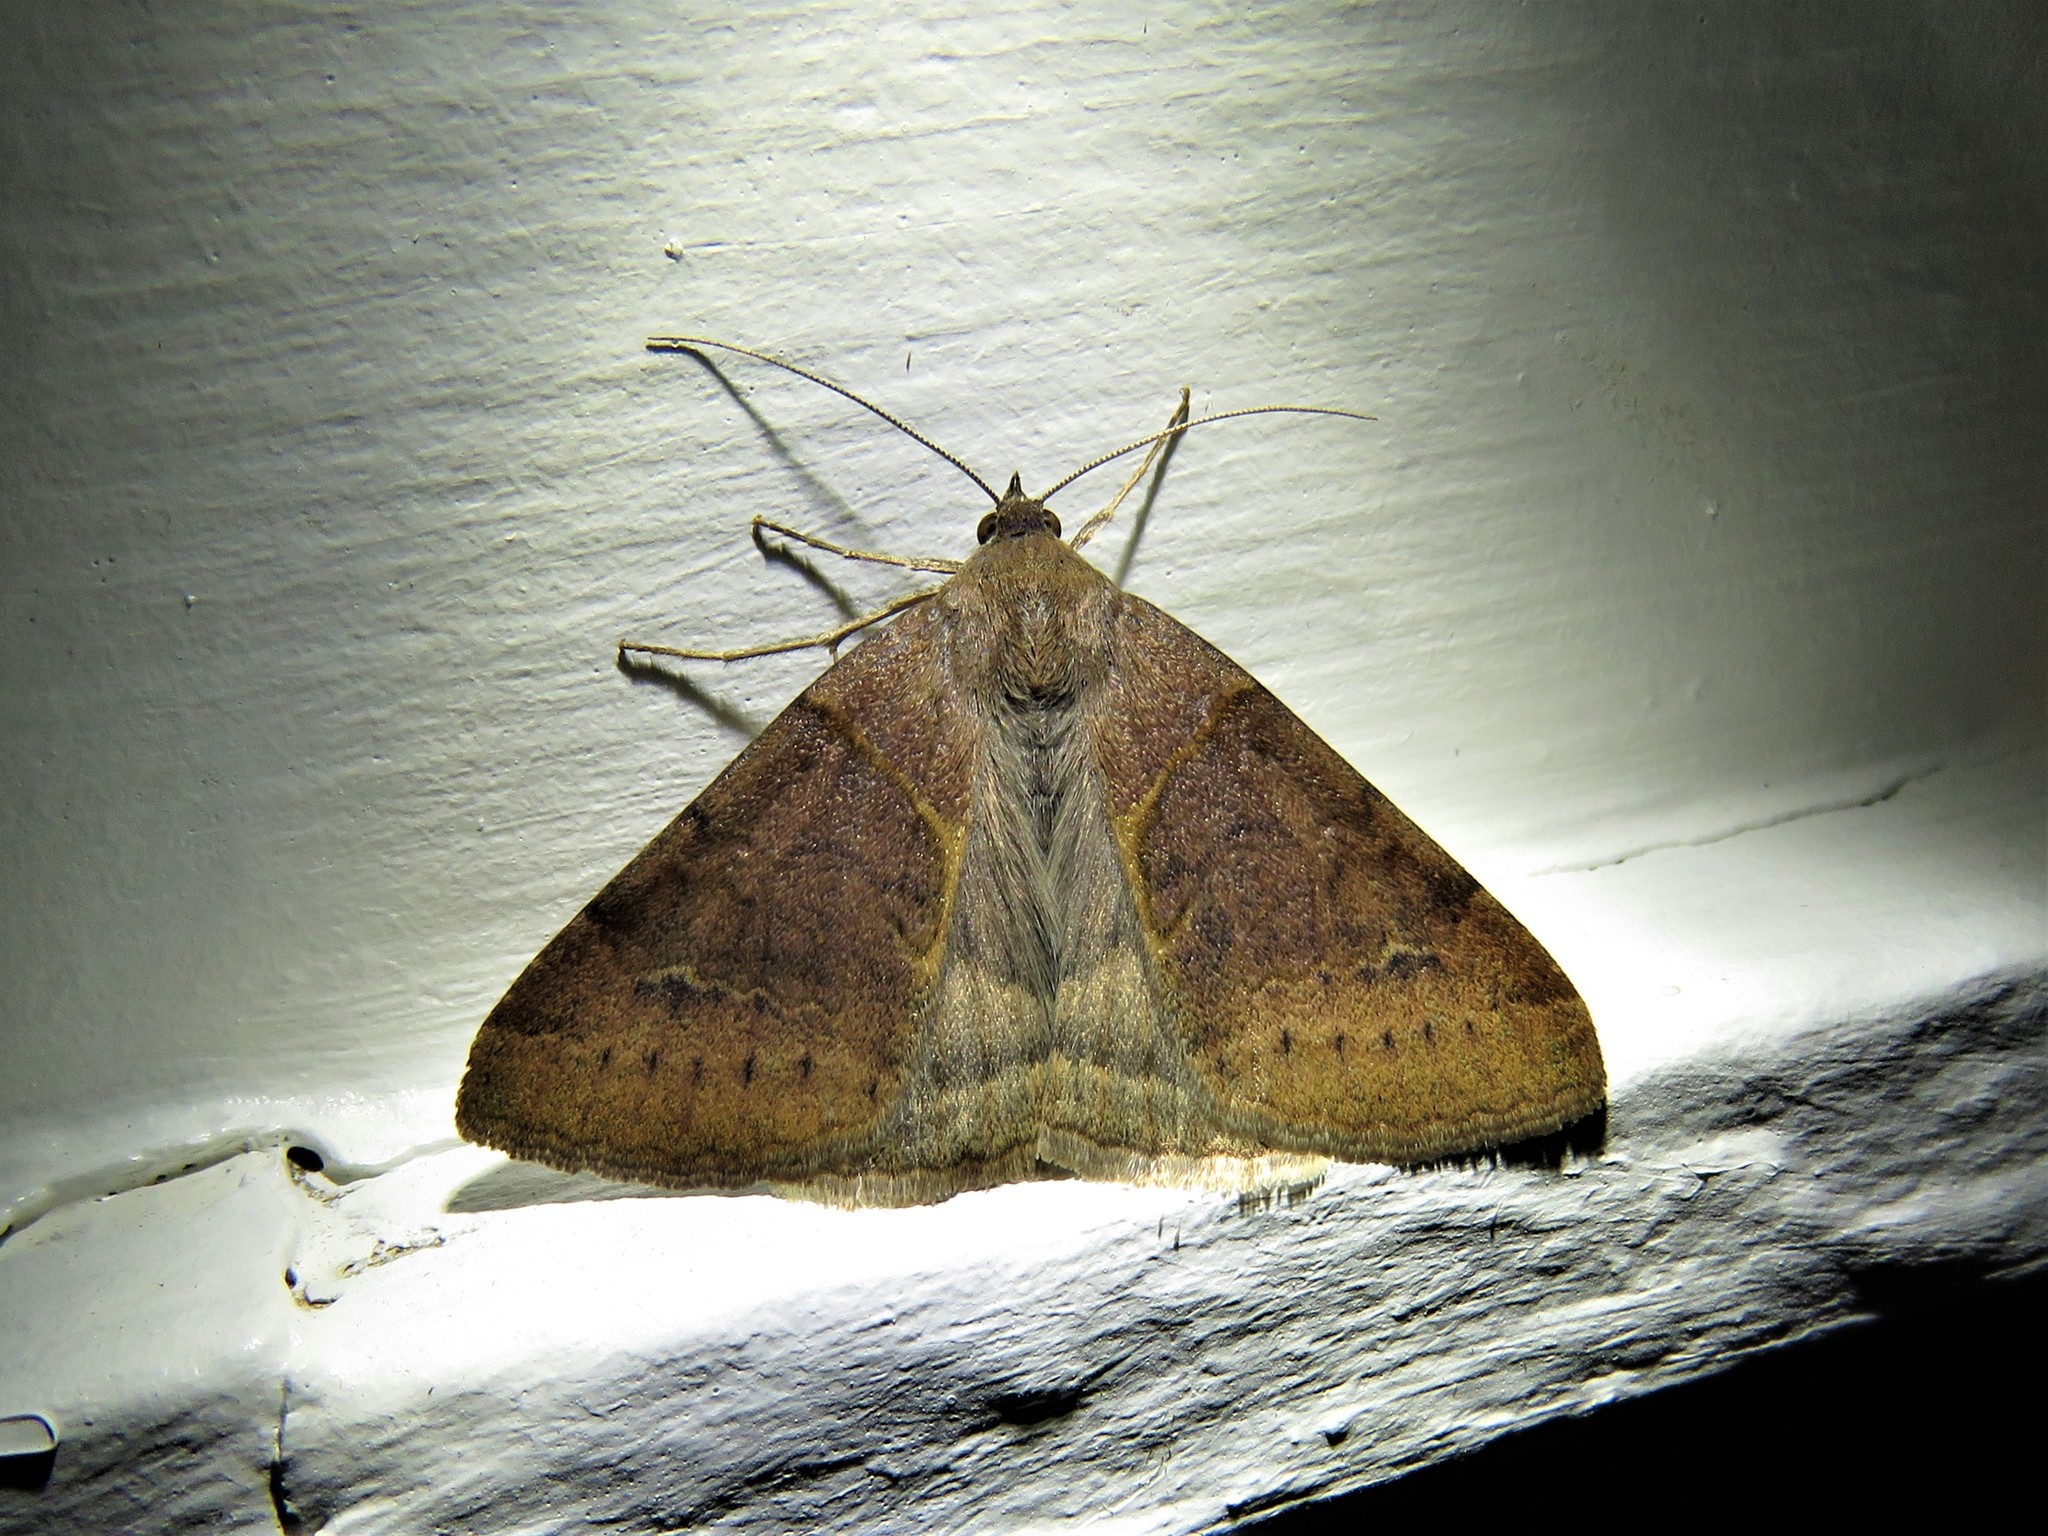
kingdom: Animalia
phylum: Arthropoda
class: Insecta
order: Lepidoptera
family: Erebidae
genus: Caenurgina
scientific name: Caenurgina erechtea
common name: Forage looper moth
